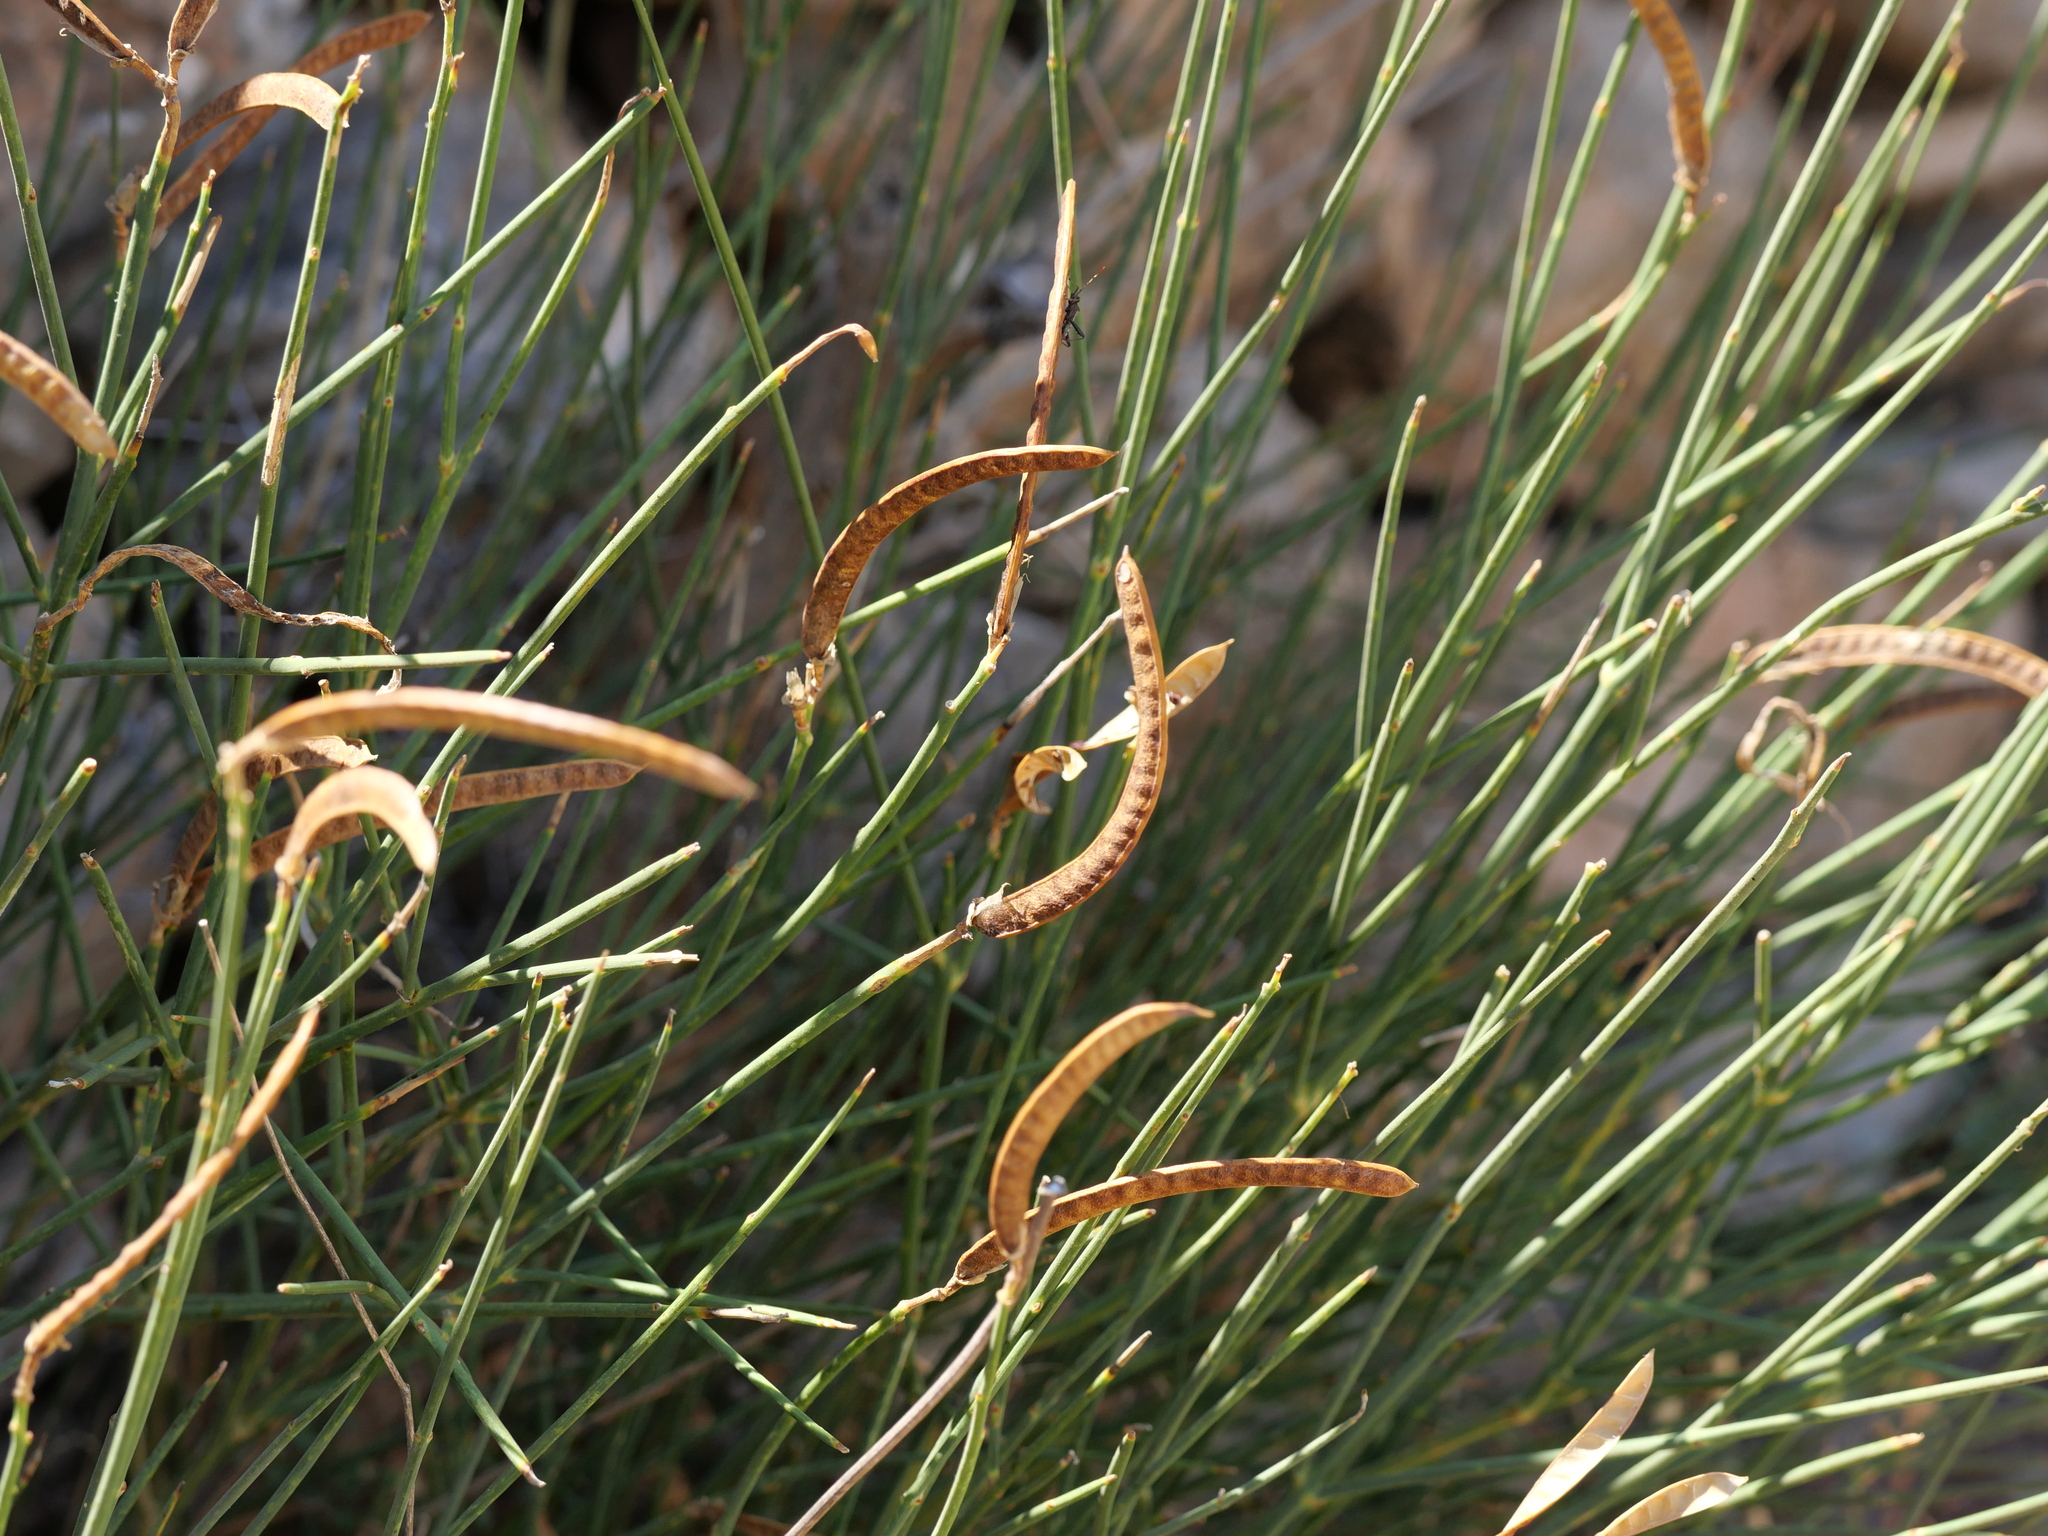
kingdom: Plantae
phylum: Tracheophyta
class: Magnoliopsida
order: Fabales
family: Fabaceae
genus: Spartium
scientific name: Spartium junceum
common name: Spanish broom
